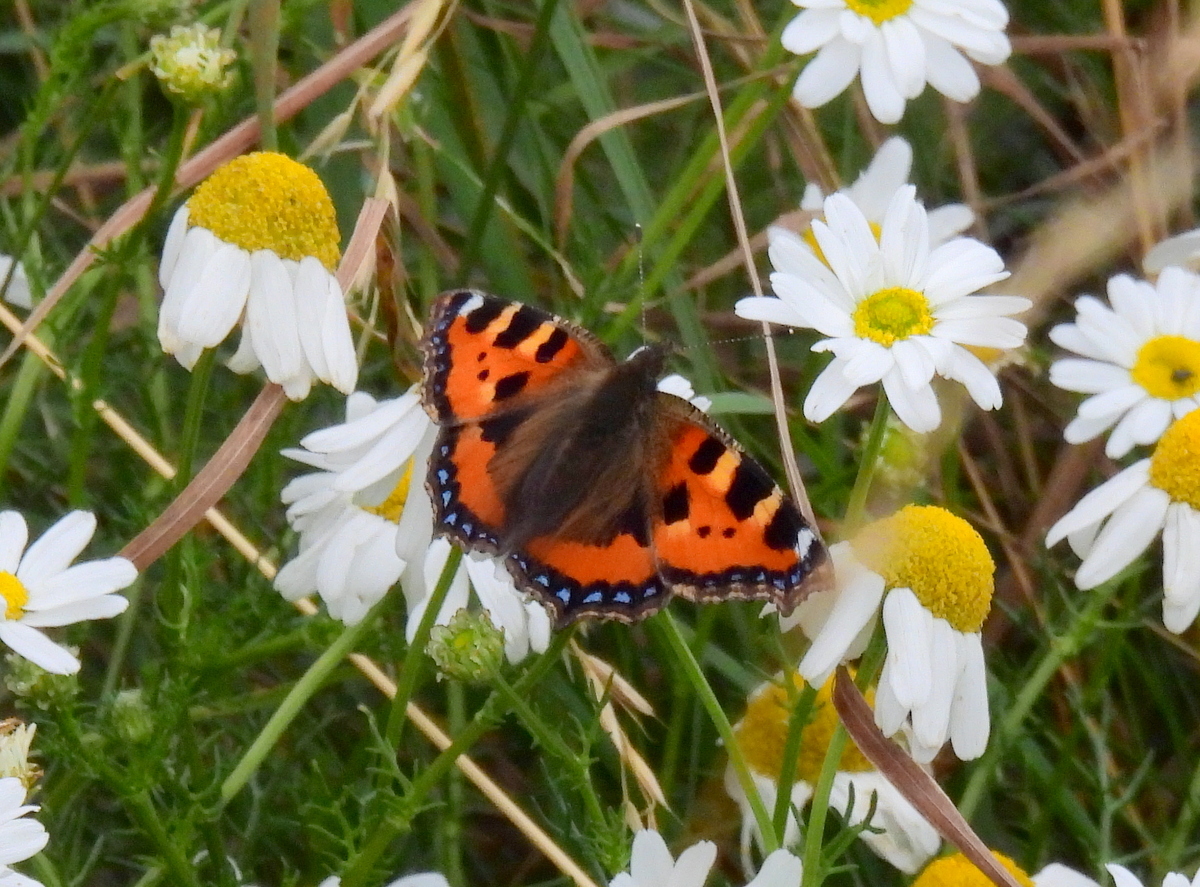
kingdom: Animalia
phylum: Arthropoda
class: Insecta
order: Lepidoptera
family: Nymphalidae
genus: Aglais
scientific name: Aglais urticae
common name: Small tortoiseshell
